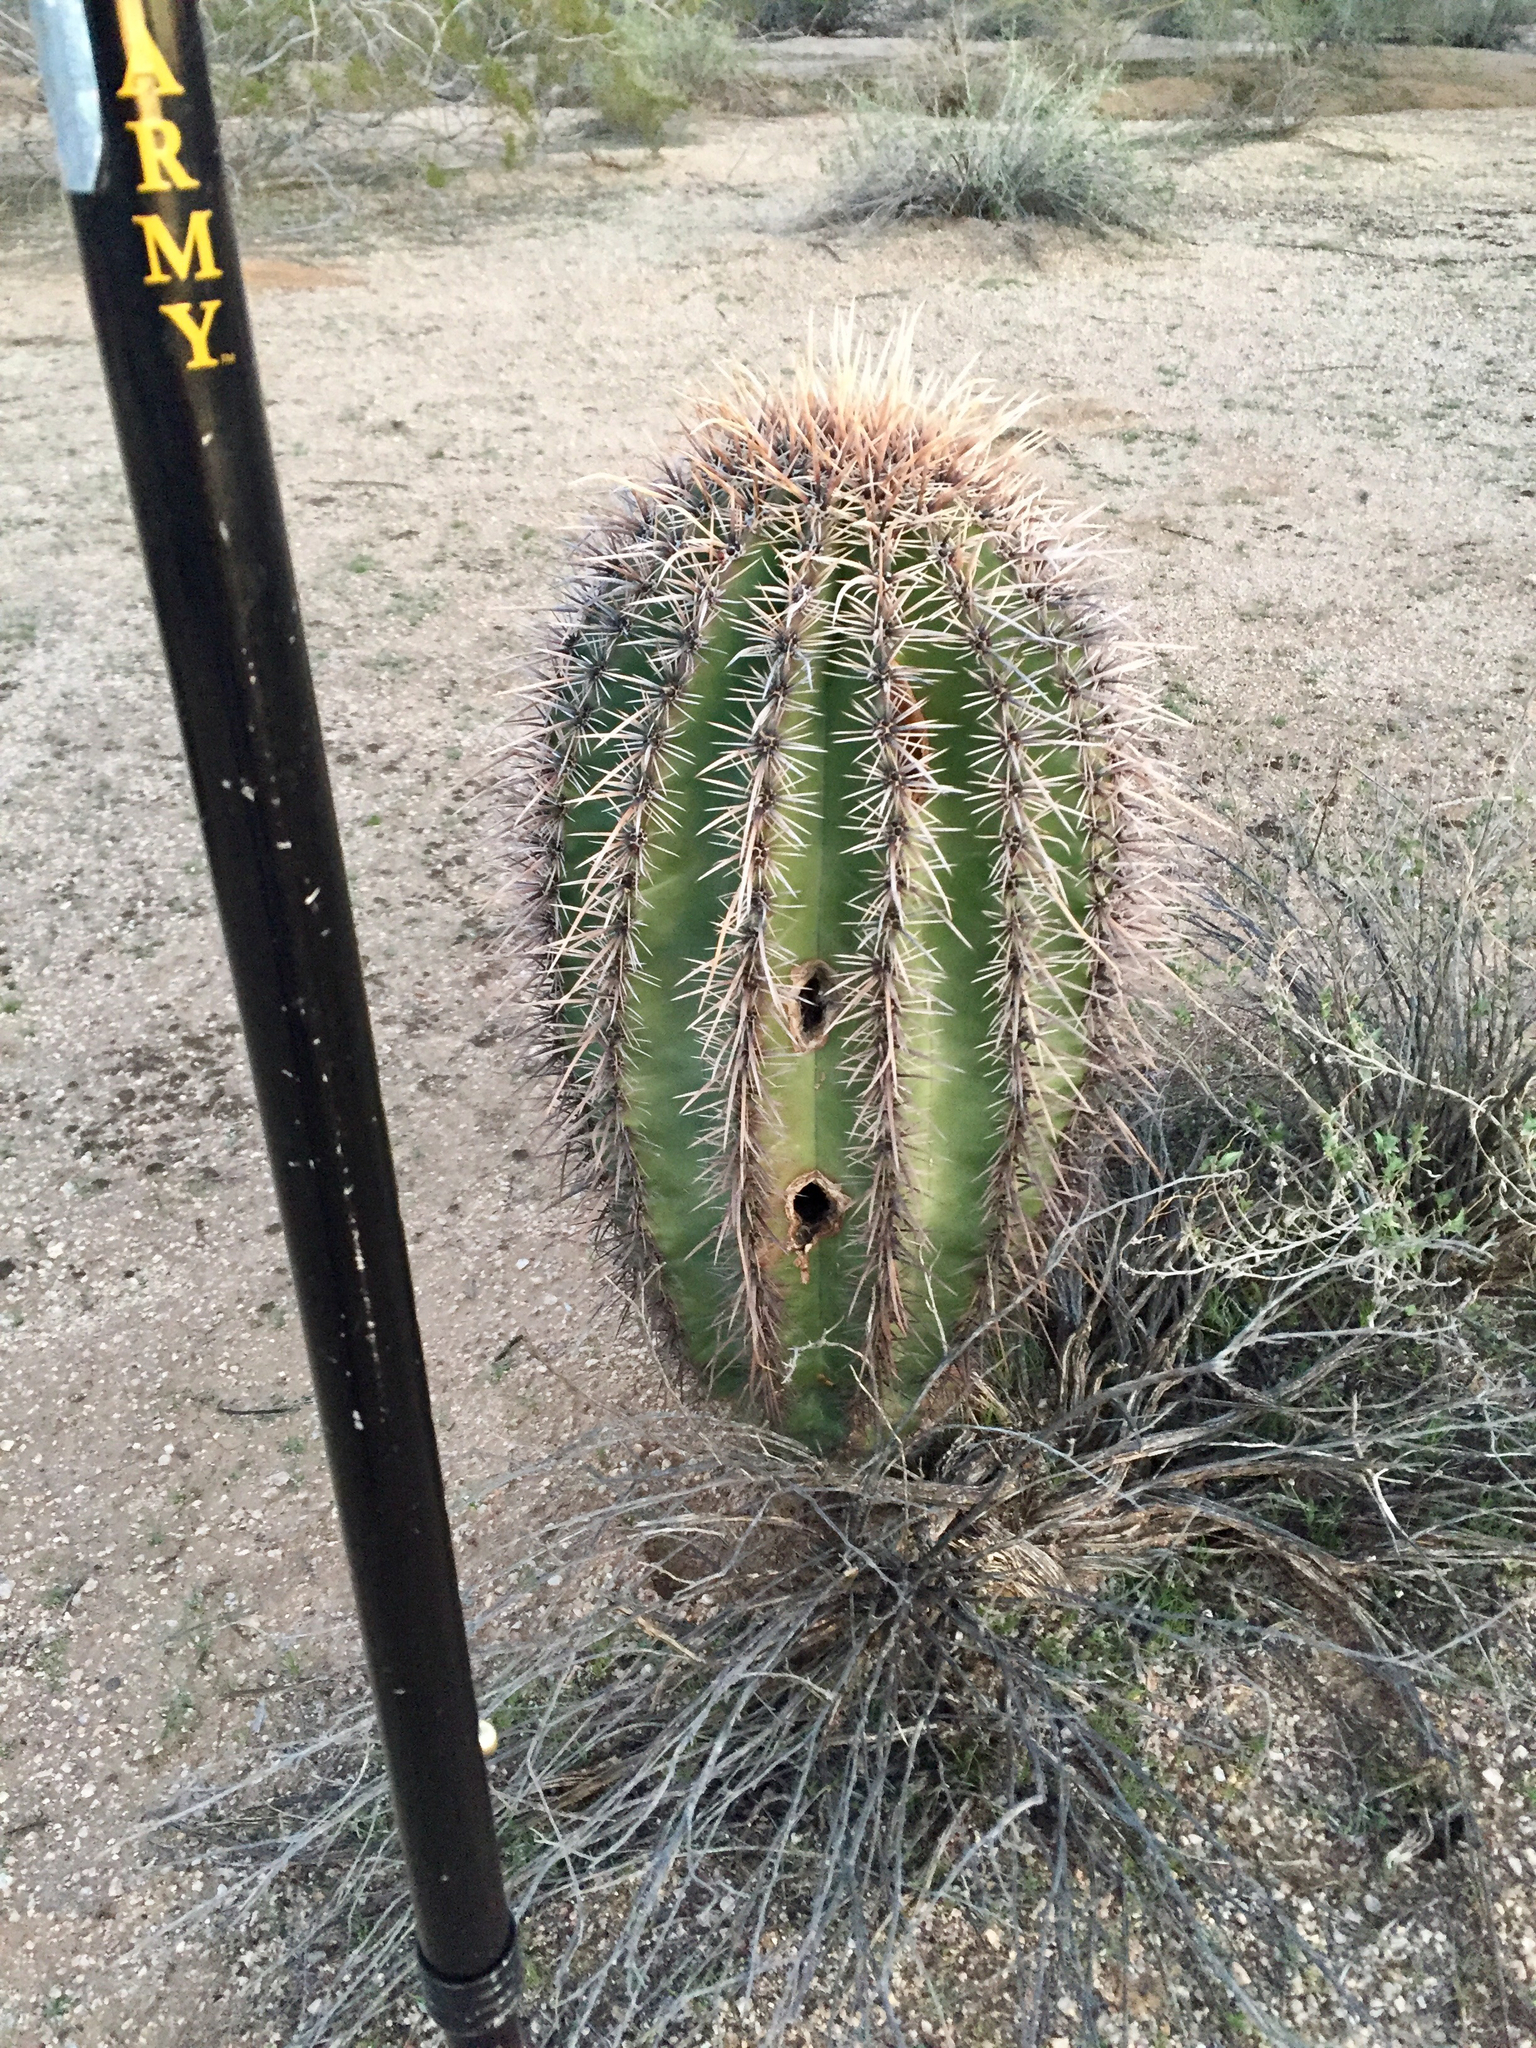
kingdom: Plantae
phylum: Tracheophyta
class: Magnoliopsida
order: Caryophyllales
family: Cactaceae
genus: Carnegiea
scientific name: Carnegiea gigantea
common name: Saguaro
